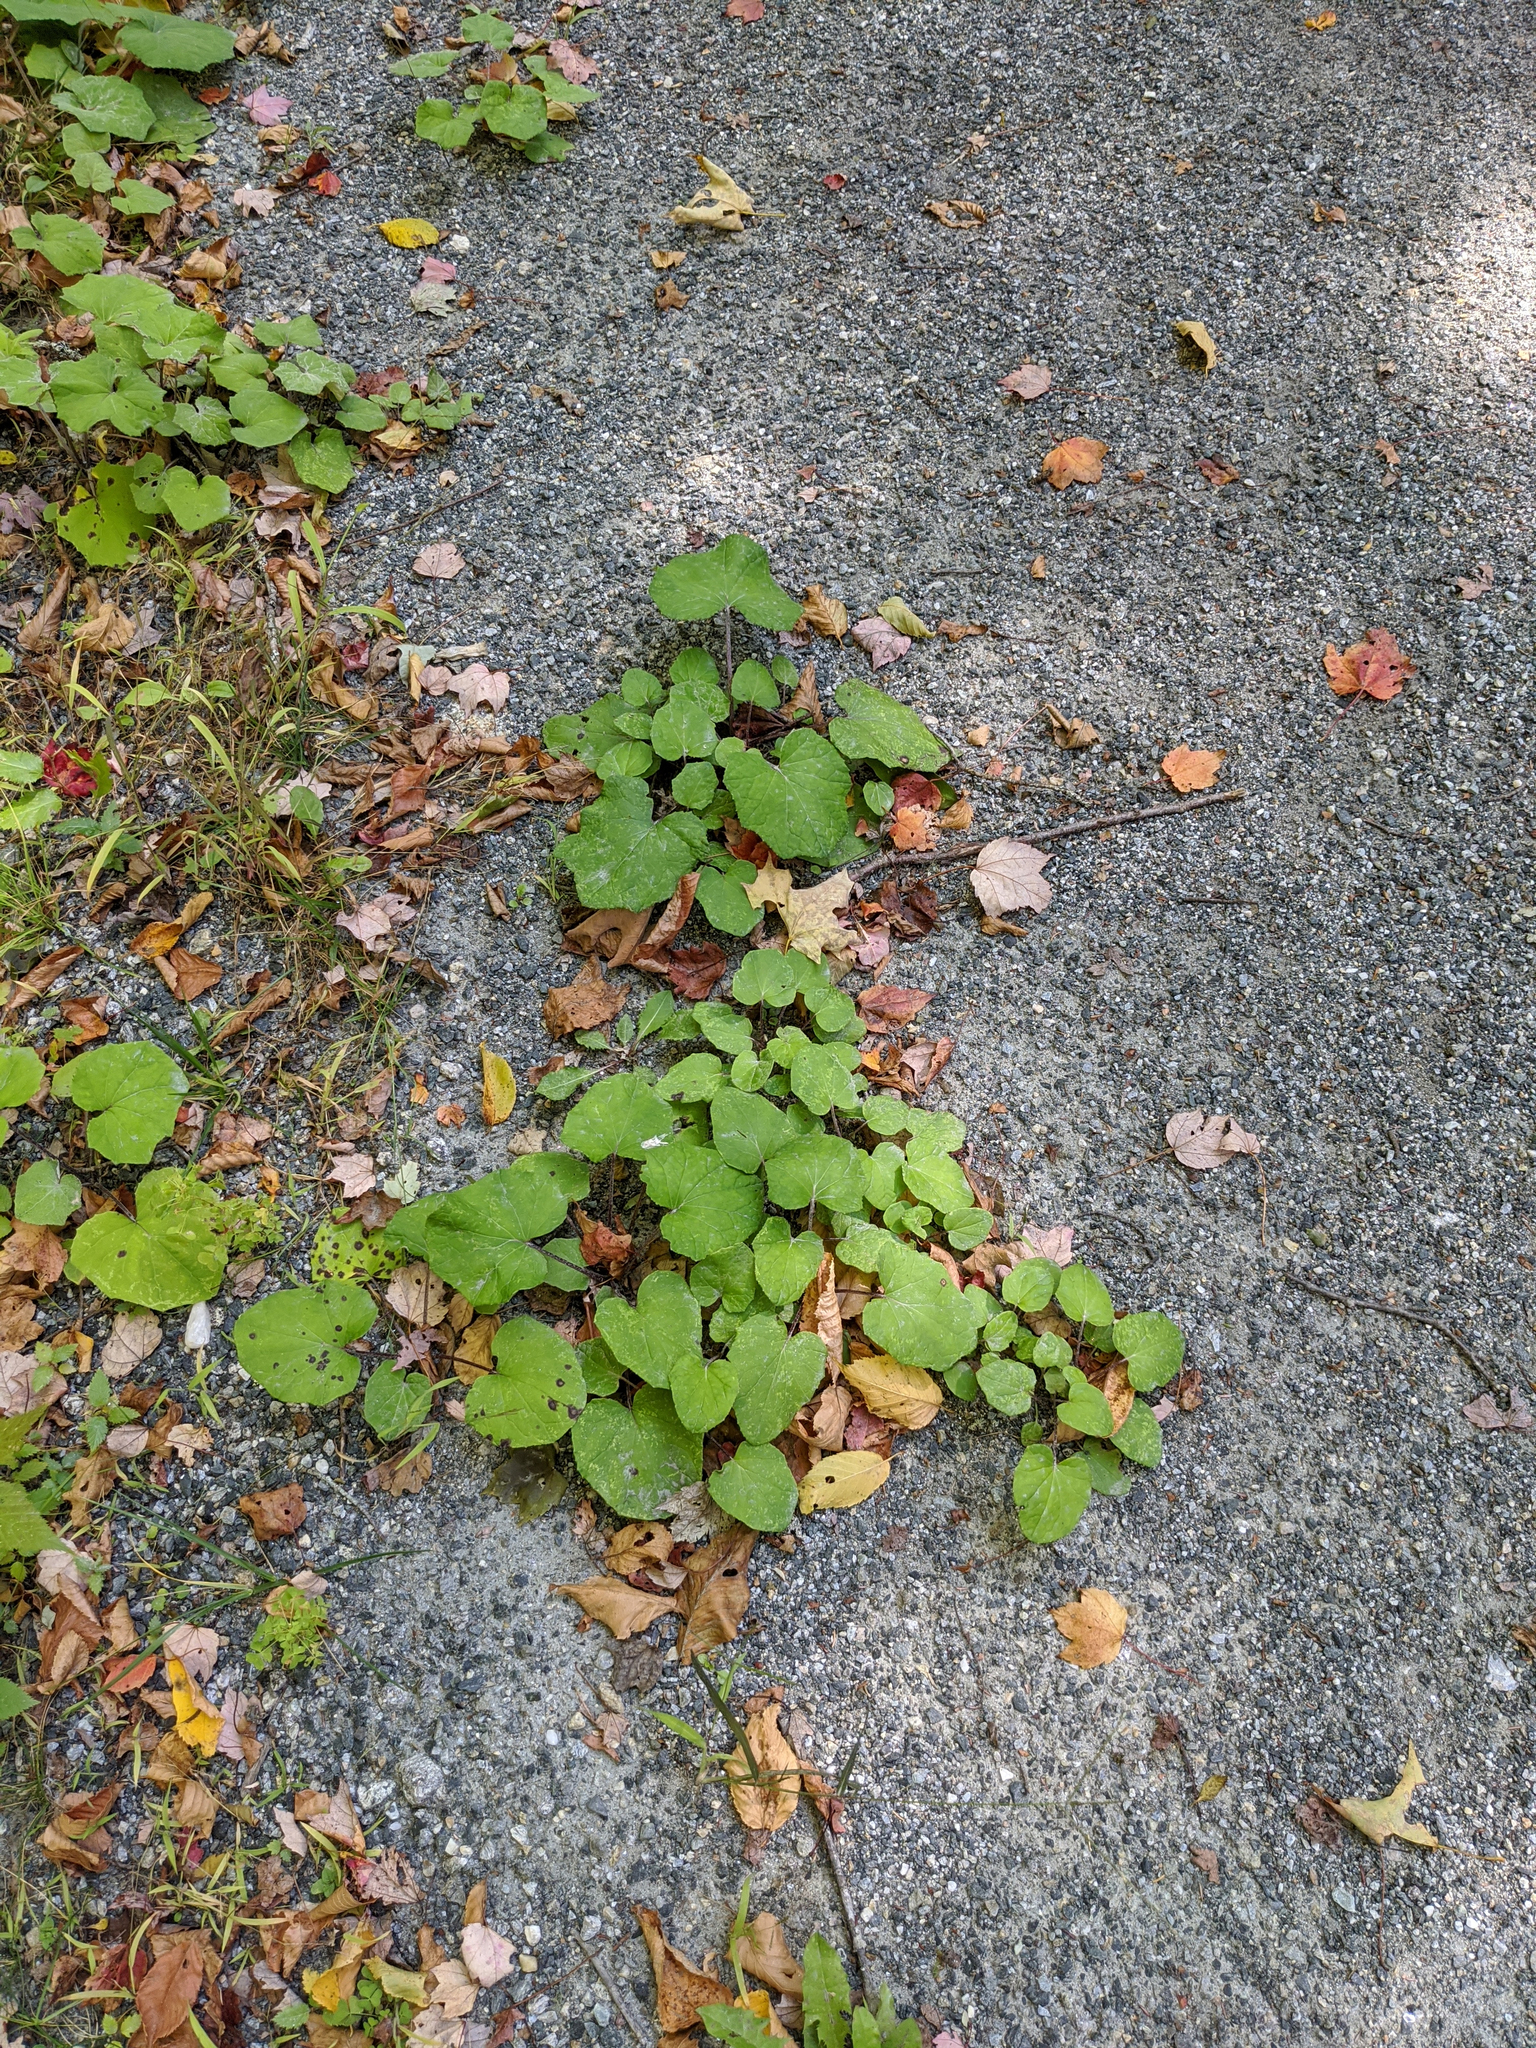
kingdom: Plantae
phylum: Tracheophyta
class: Magnoliopsida
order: Asterales
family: Asteraceae
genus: Tussilago
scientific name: Tussilago farfara
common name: Coltsfoot
